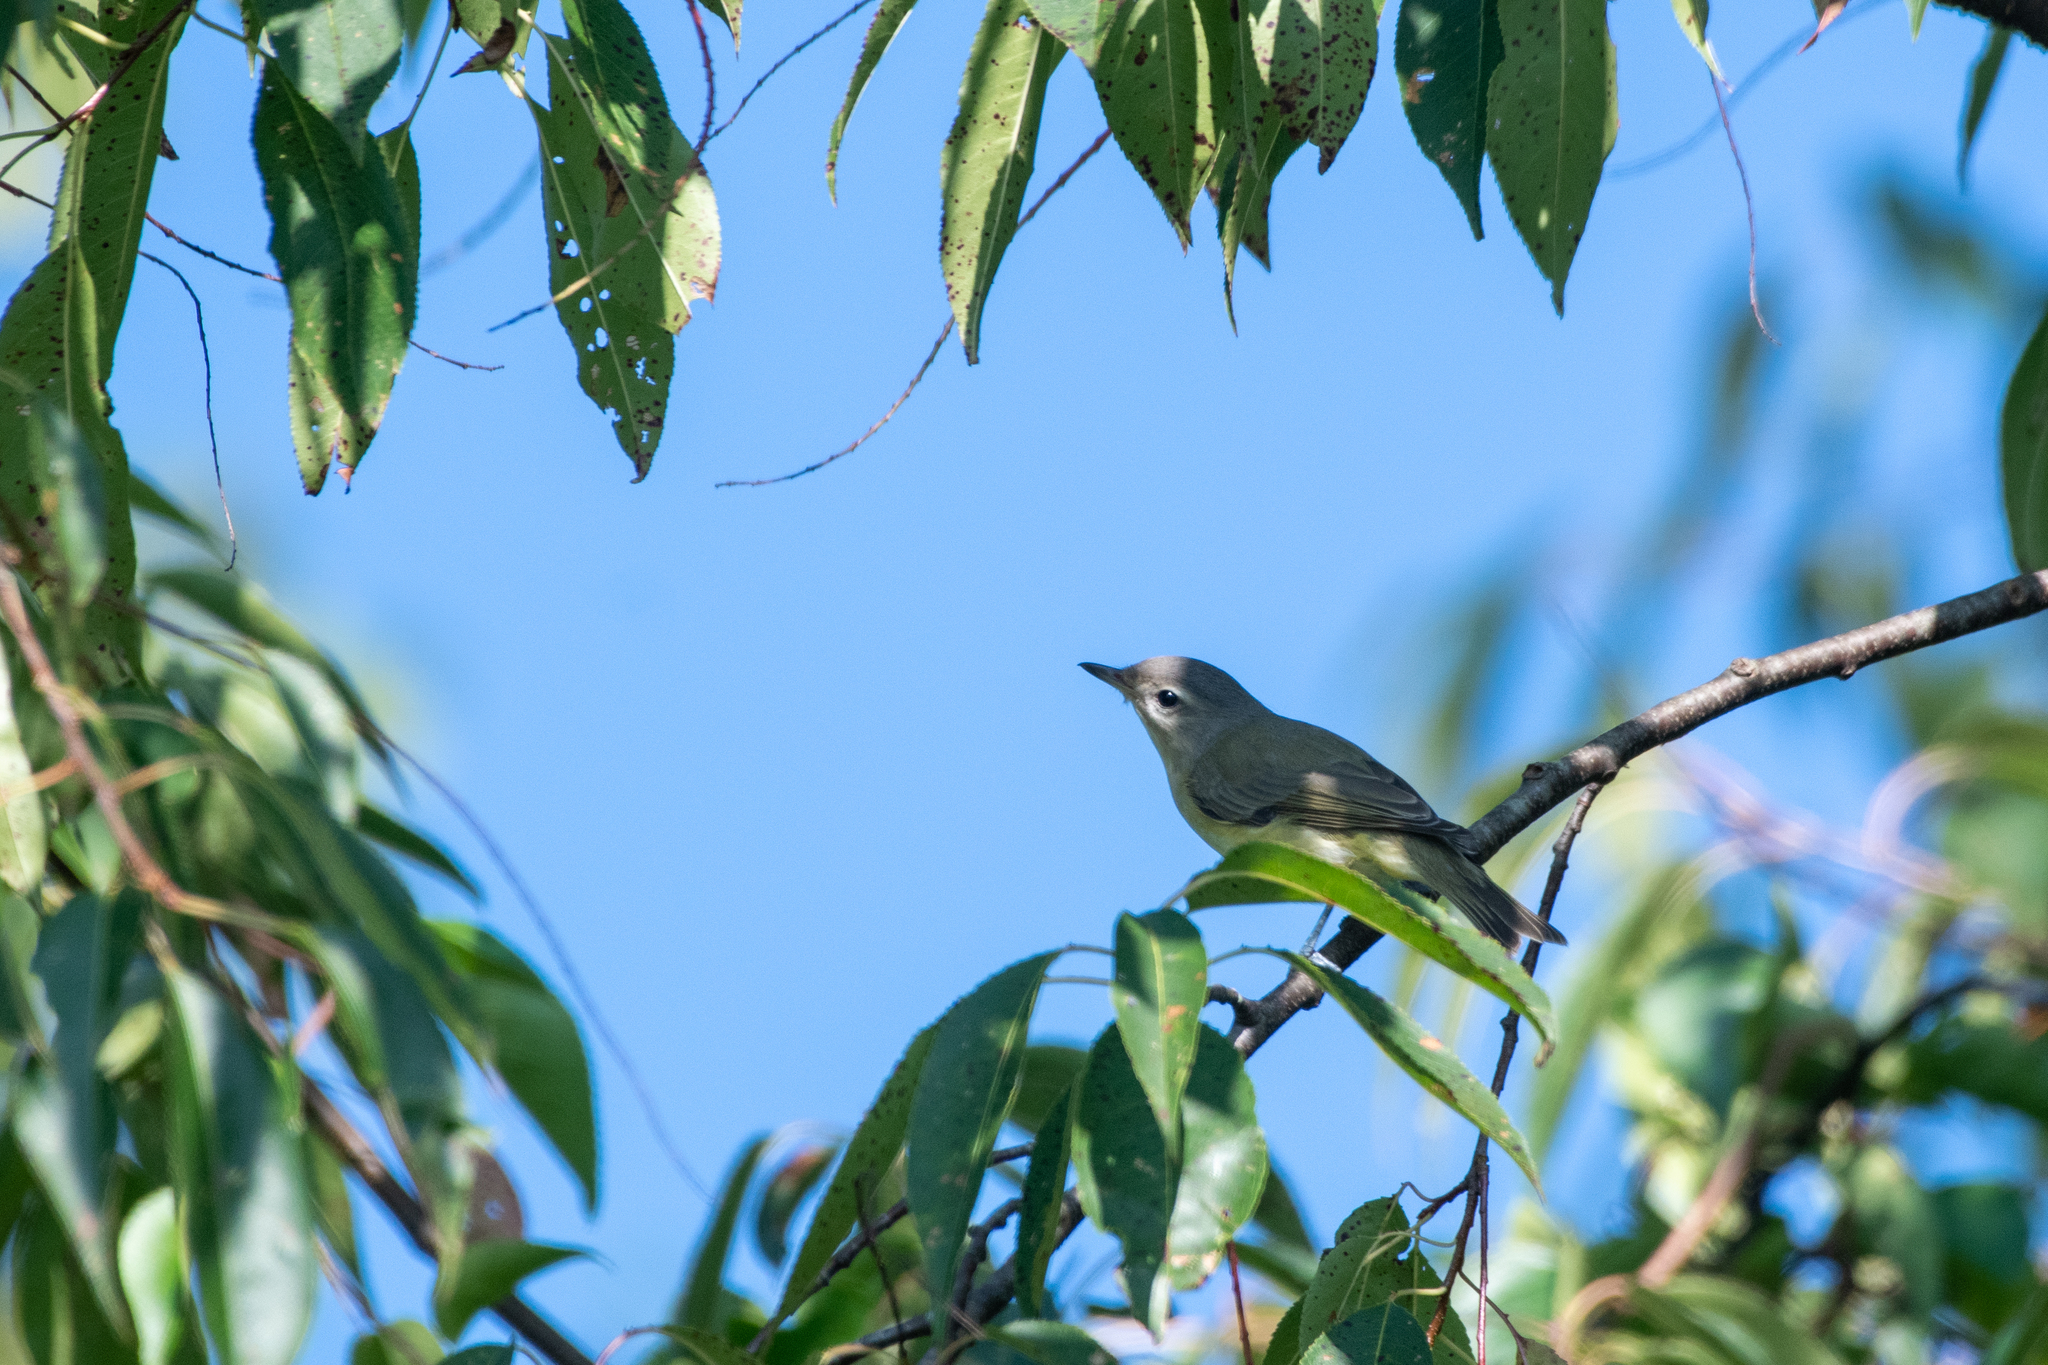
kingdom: Animalia
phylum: Chordata
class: Aves
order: Passeriformes
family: Vireonidae
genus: Vireo
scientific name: Vireo gilvus
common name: Warbling vireo
